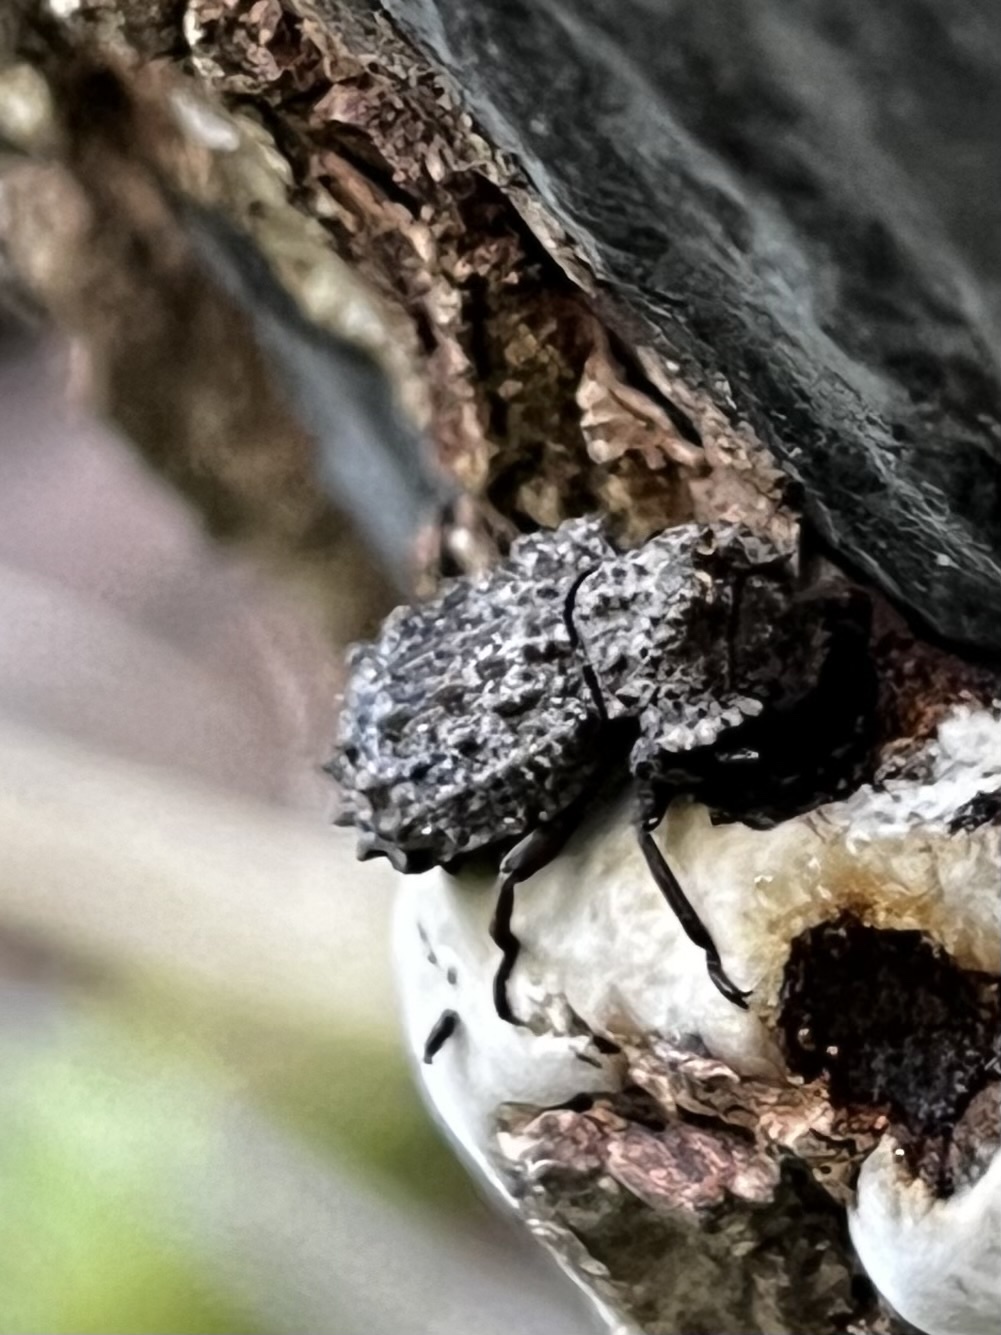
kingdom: Animalia
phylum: Arthropoda
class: Insecta
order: Coleoptera
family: Tenebrionidae
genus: Gnatocerus
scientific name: Gnatocerus cornutus
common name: Broad-horned flour beetle
